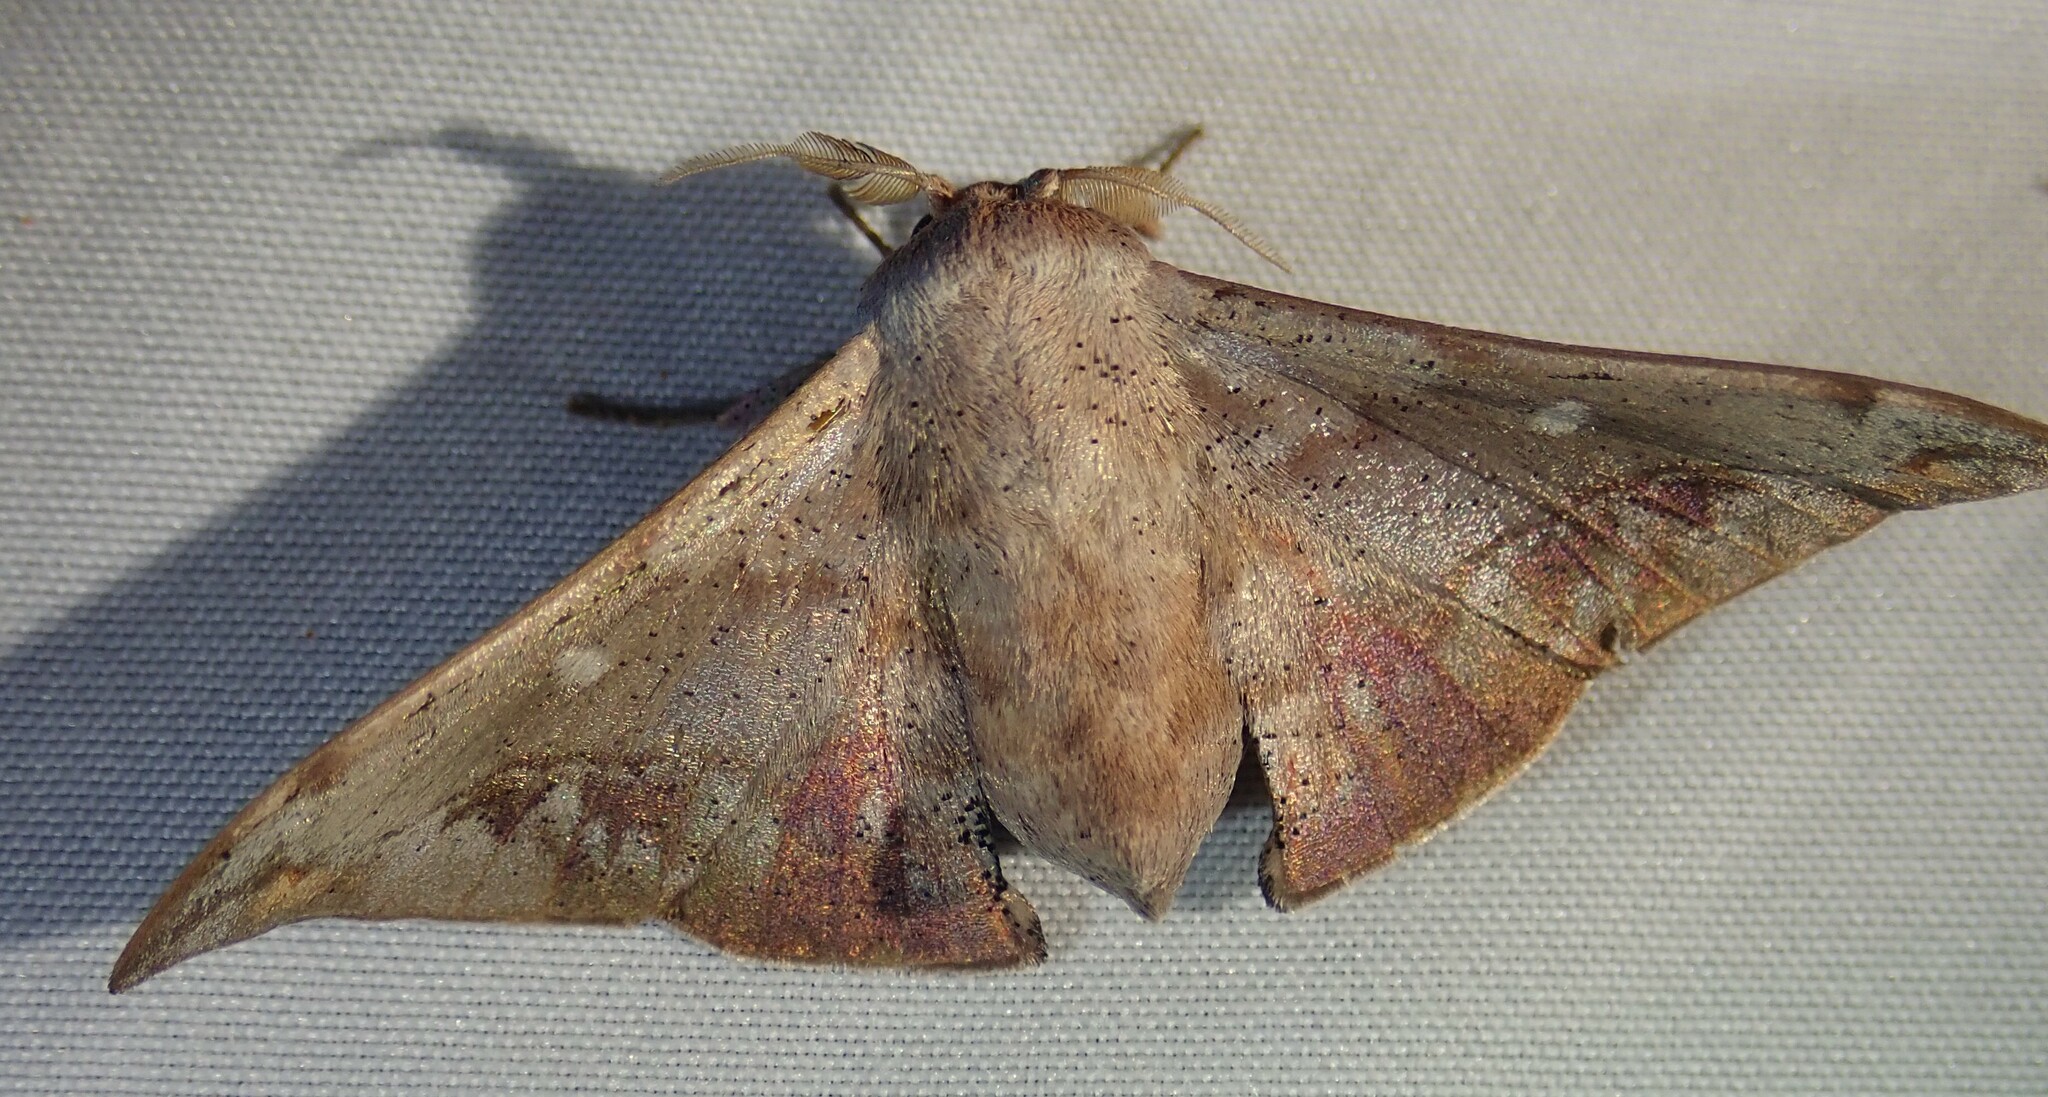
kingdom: Animalia
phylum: Arthropoda
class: Insecta
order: Lepidoptera
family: Mimallonidae
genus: Roelmana
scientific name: Roelmana prominens
